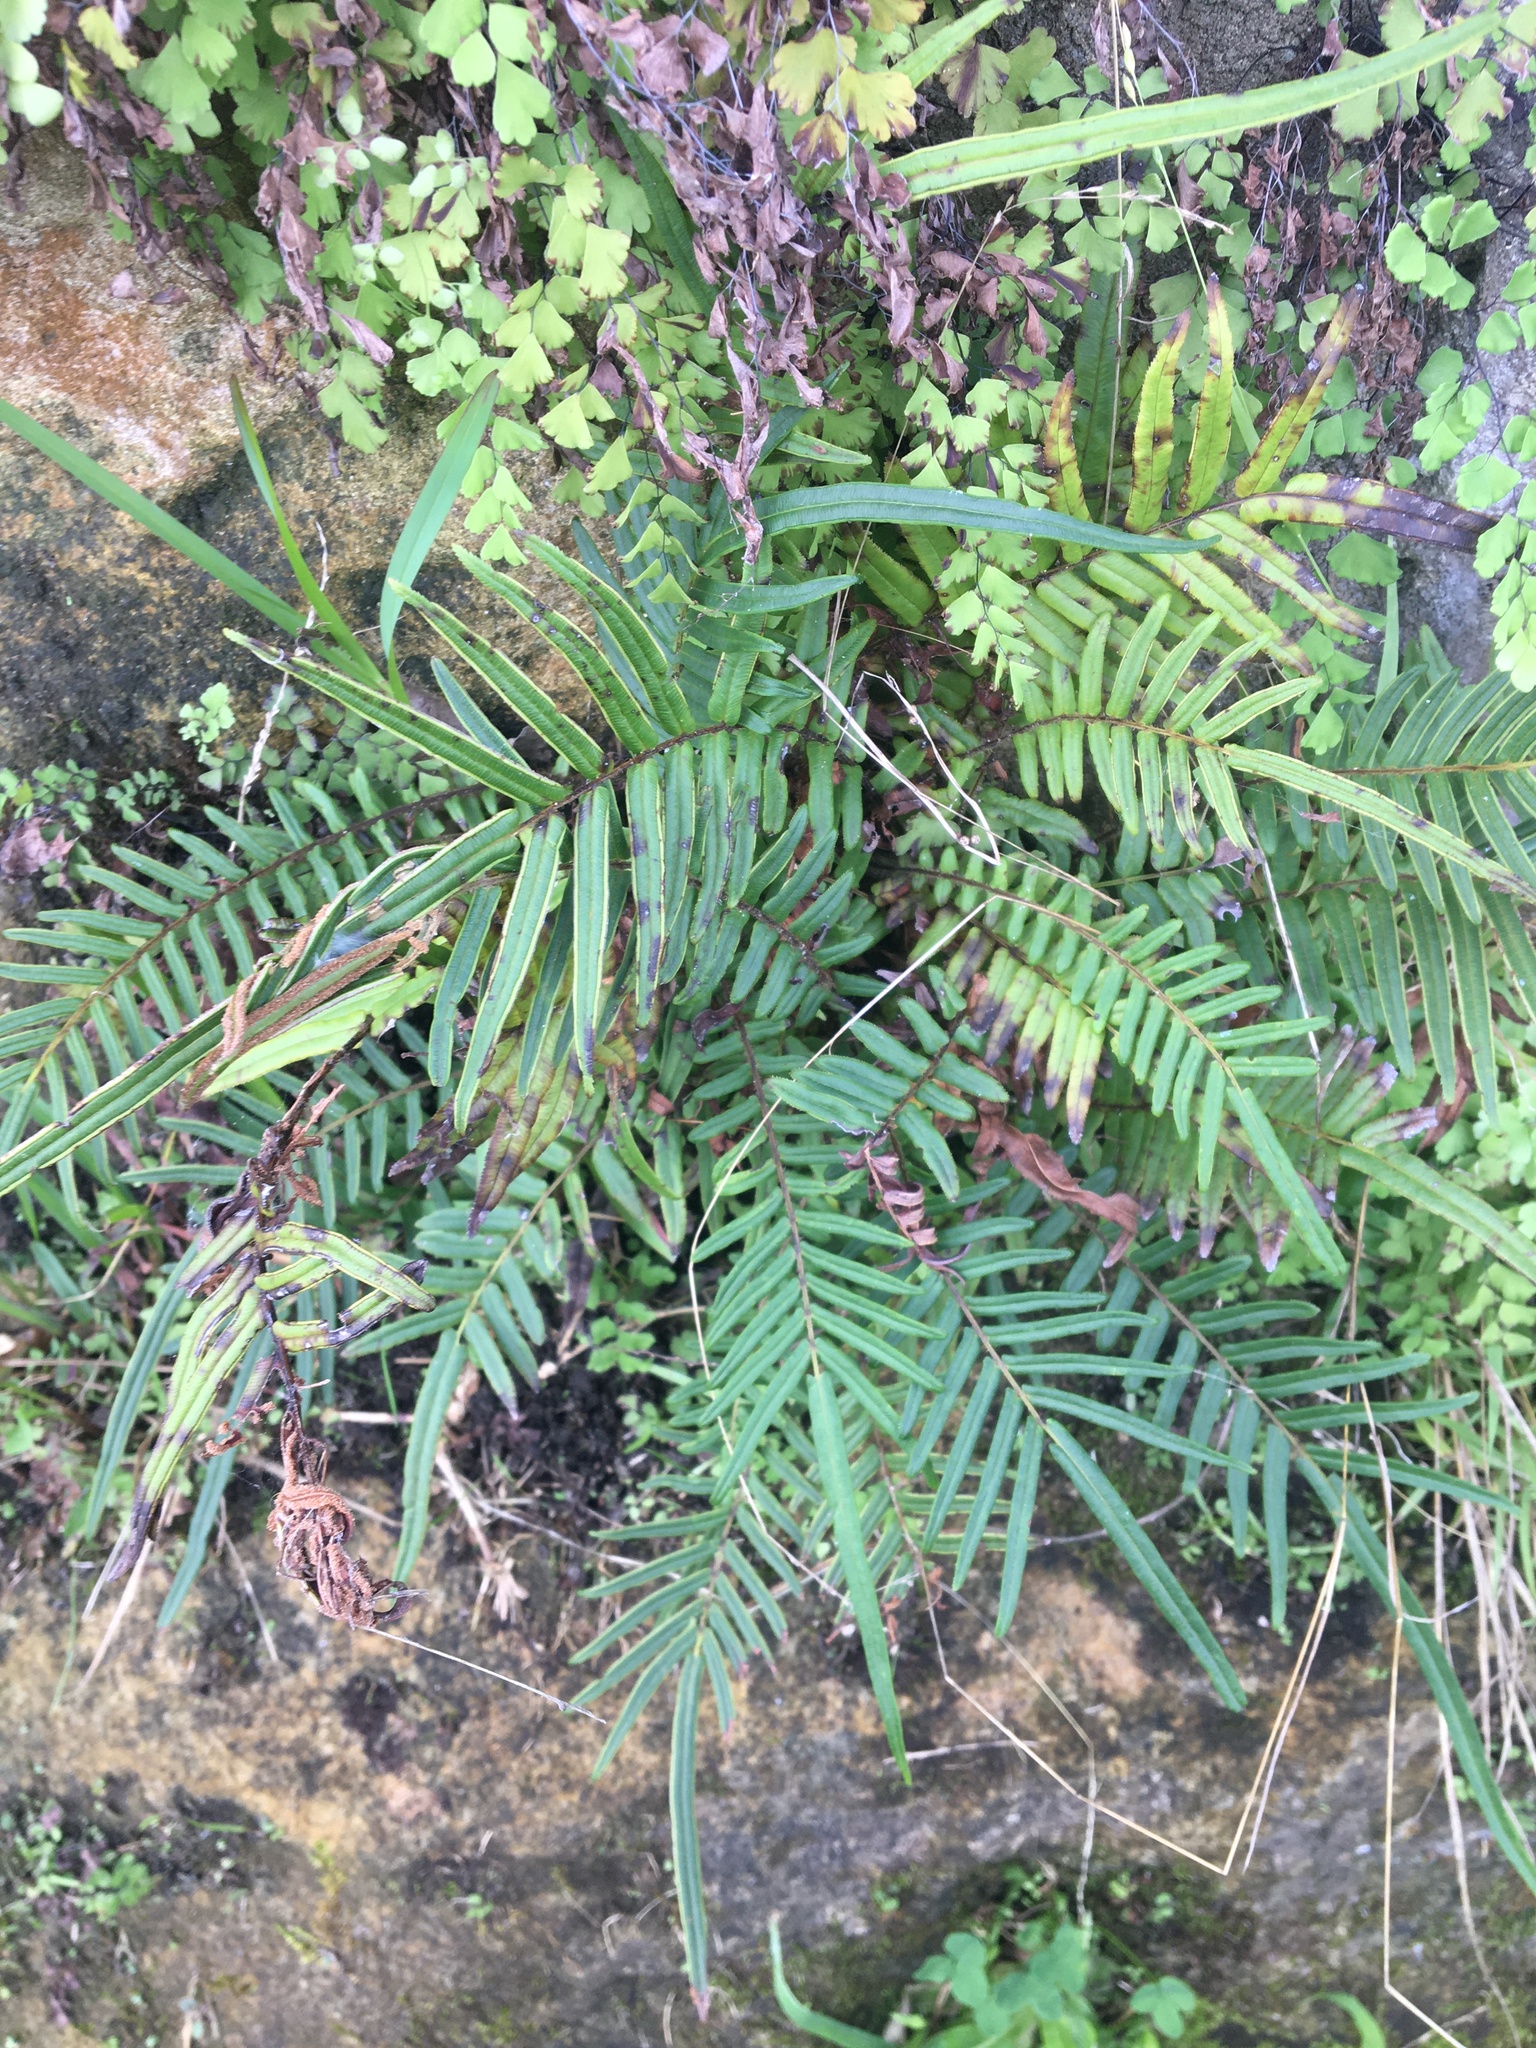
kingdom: Plantae
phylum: Tracheophyta
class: Polypodiopsida
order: Polypodiales
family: Pteridaceae
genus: Pteris
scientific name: Pteris vittata
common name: Ladder brake
